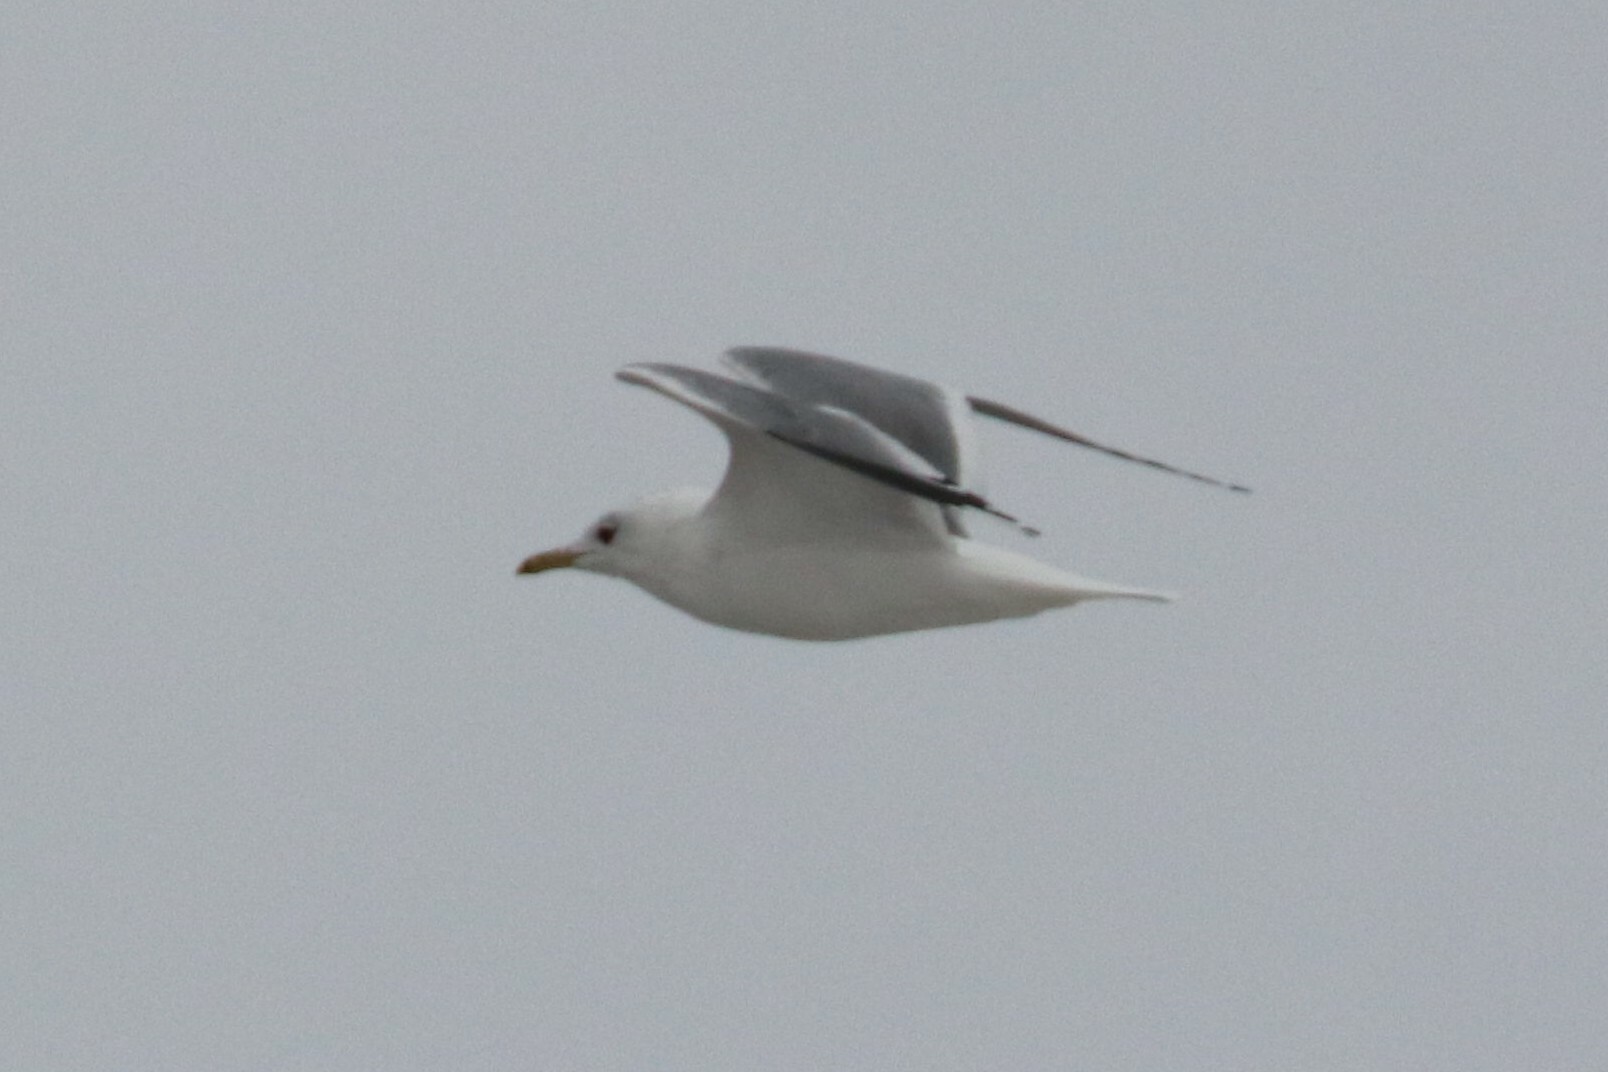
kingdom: Animalia
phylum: Chordata
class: Aves
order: Charadriiformes
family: Laridae
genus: Larus
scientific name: Larus canus
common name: Mew gull
